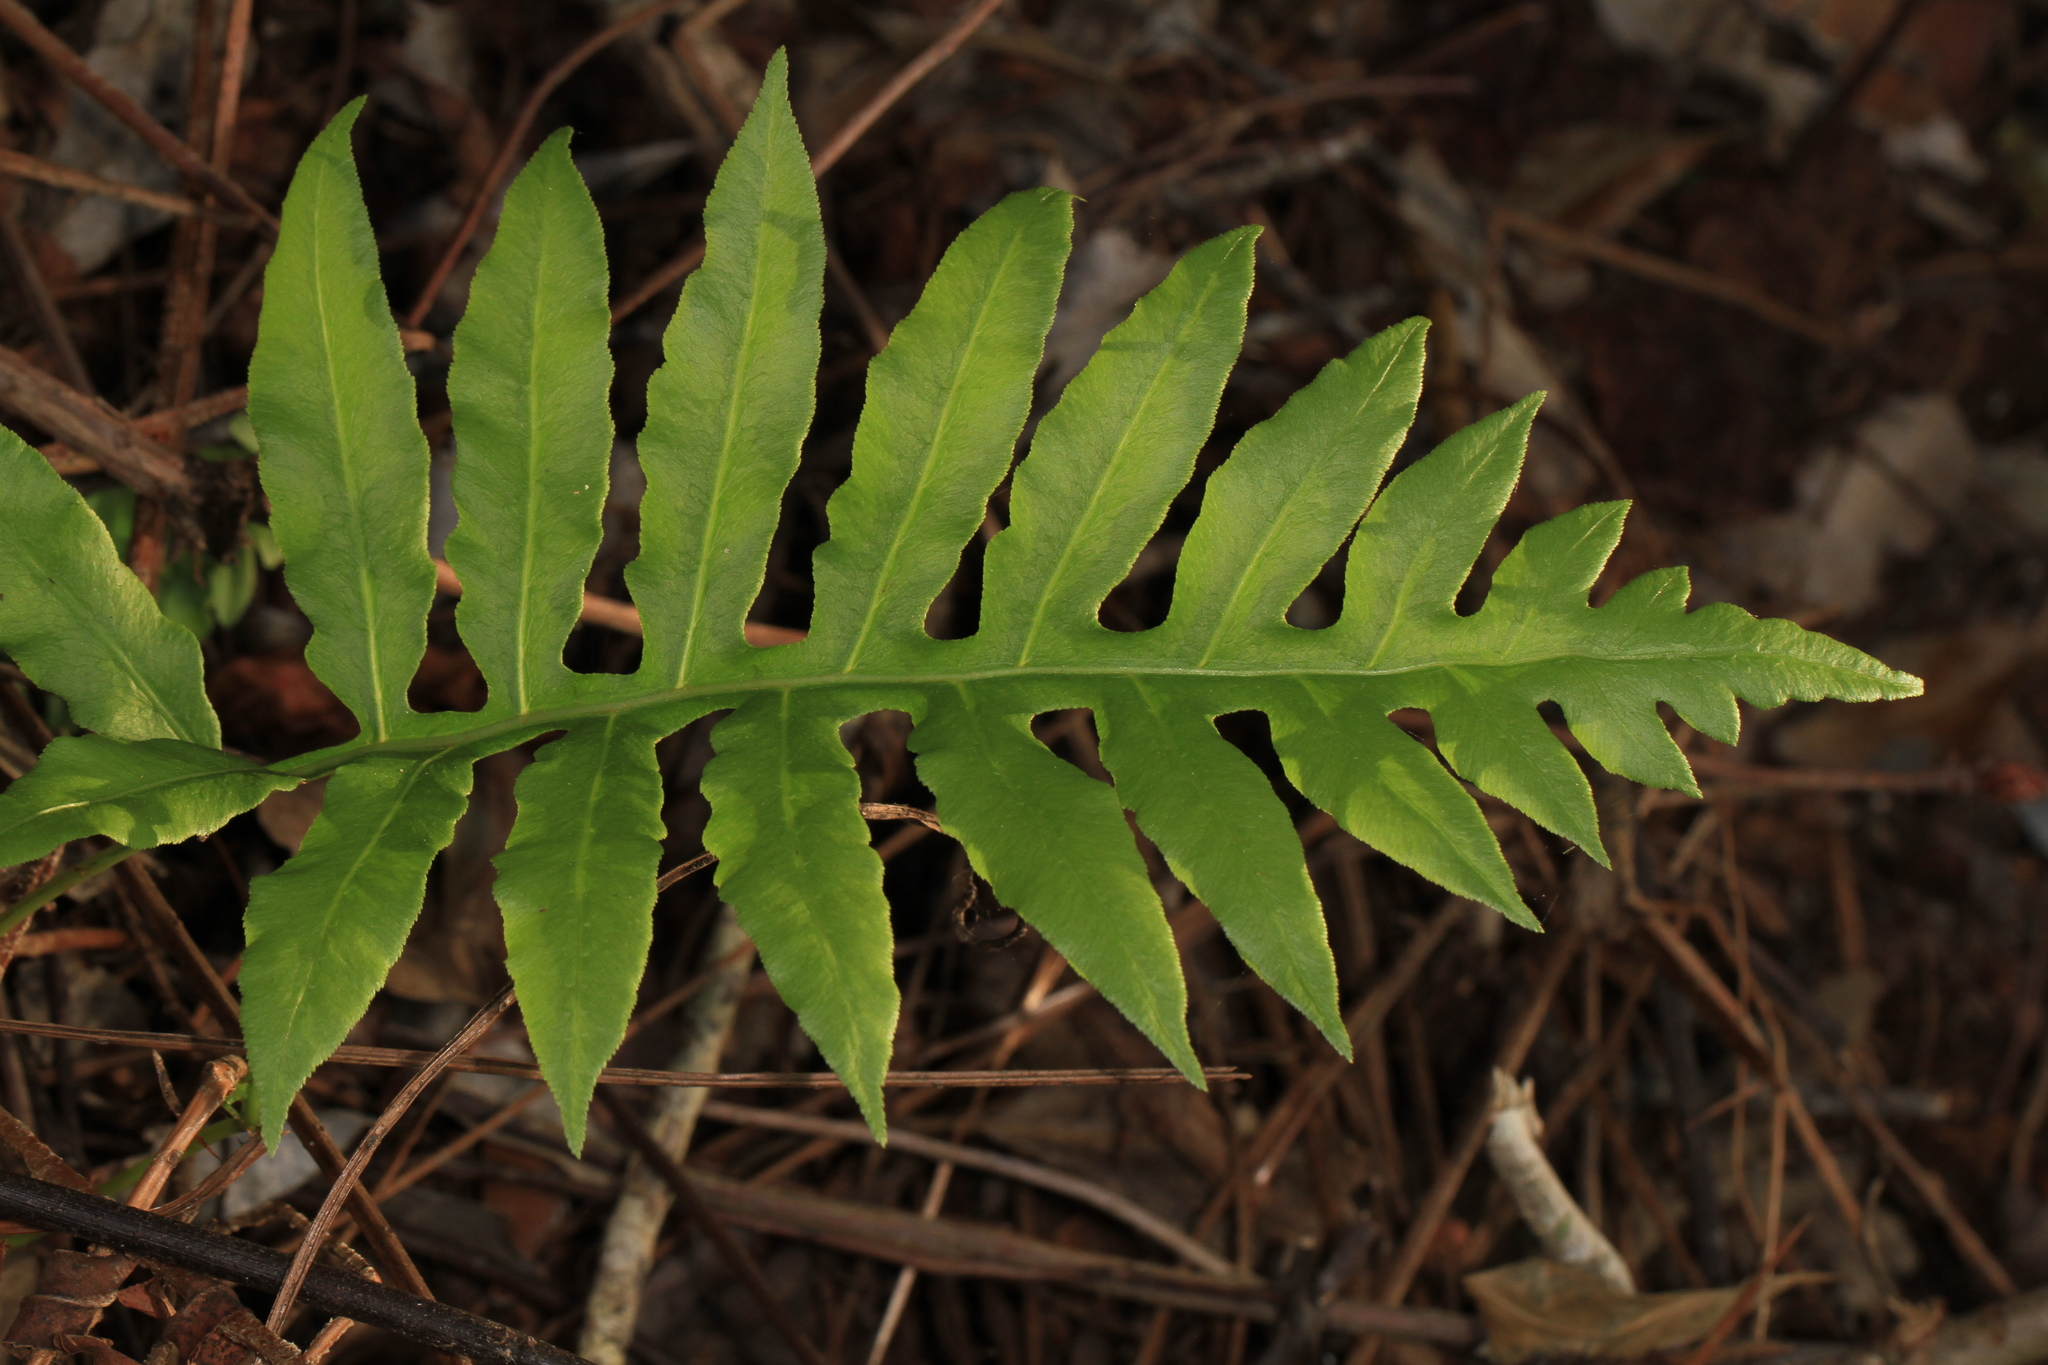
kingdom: Plantae
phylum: Tracheophyta
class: Polypodiopsida
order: Polypodiales
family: Blechnaceae
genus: Lorinseria
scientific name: Lorinseria areolata
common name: Dwarf chain fern
